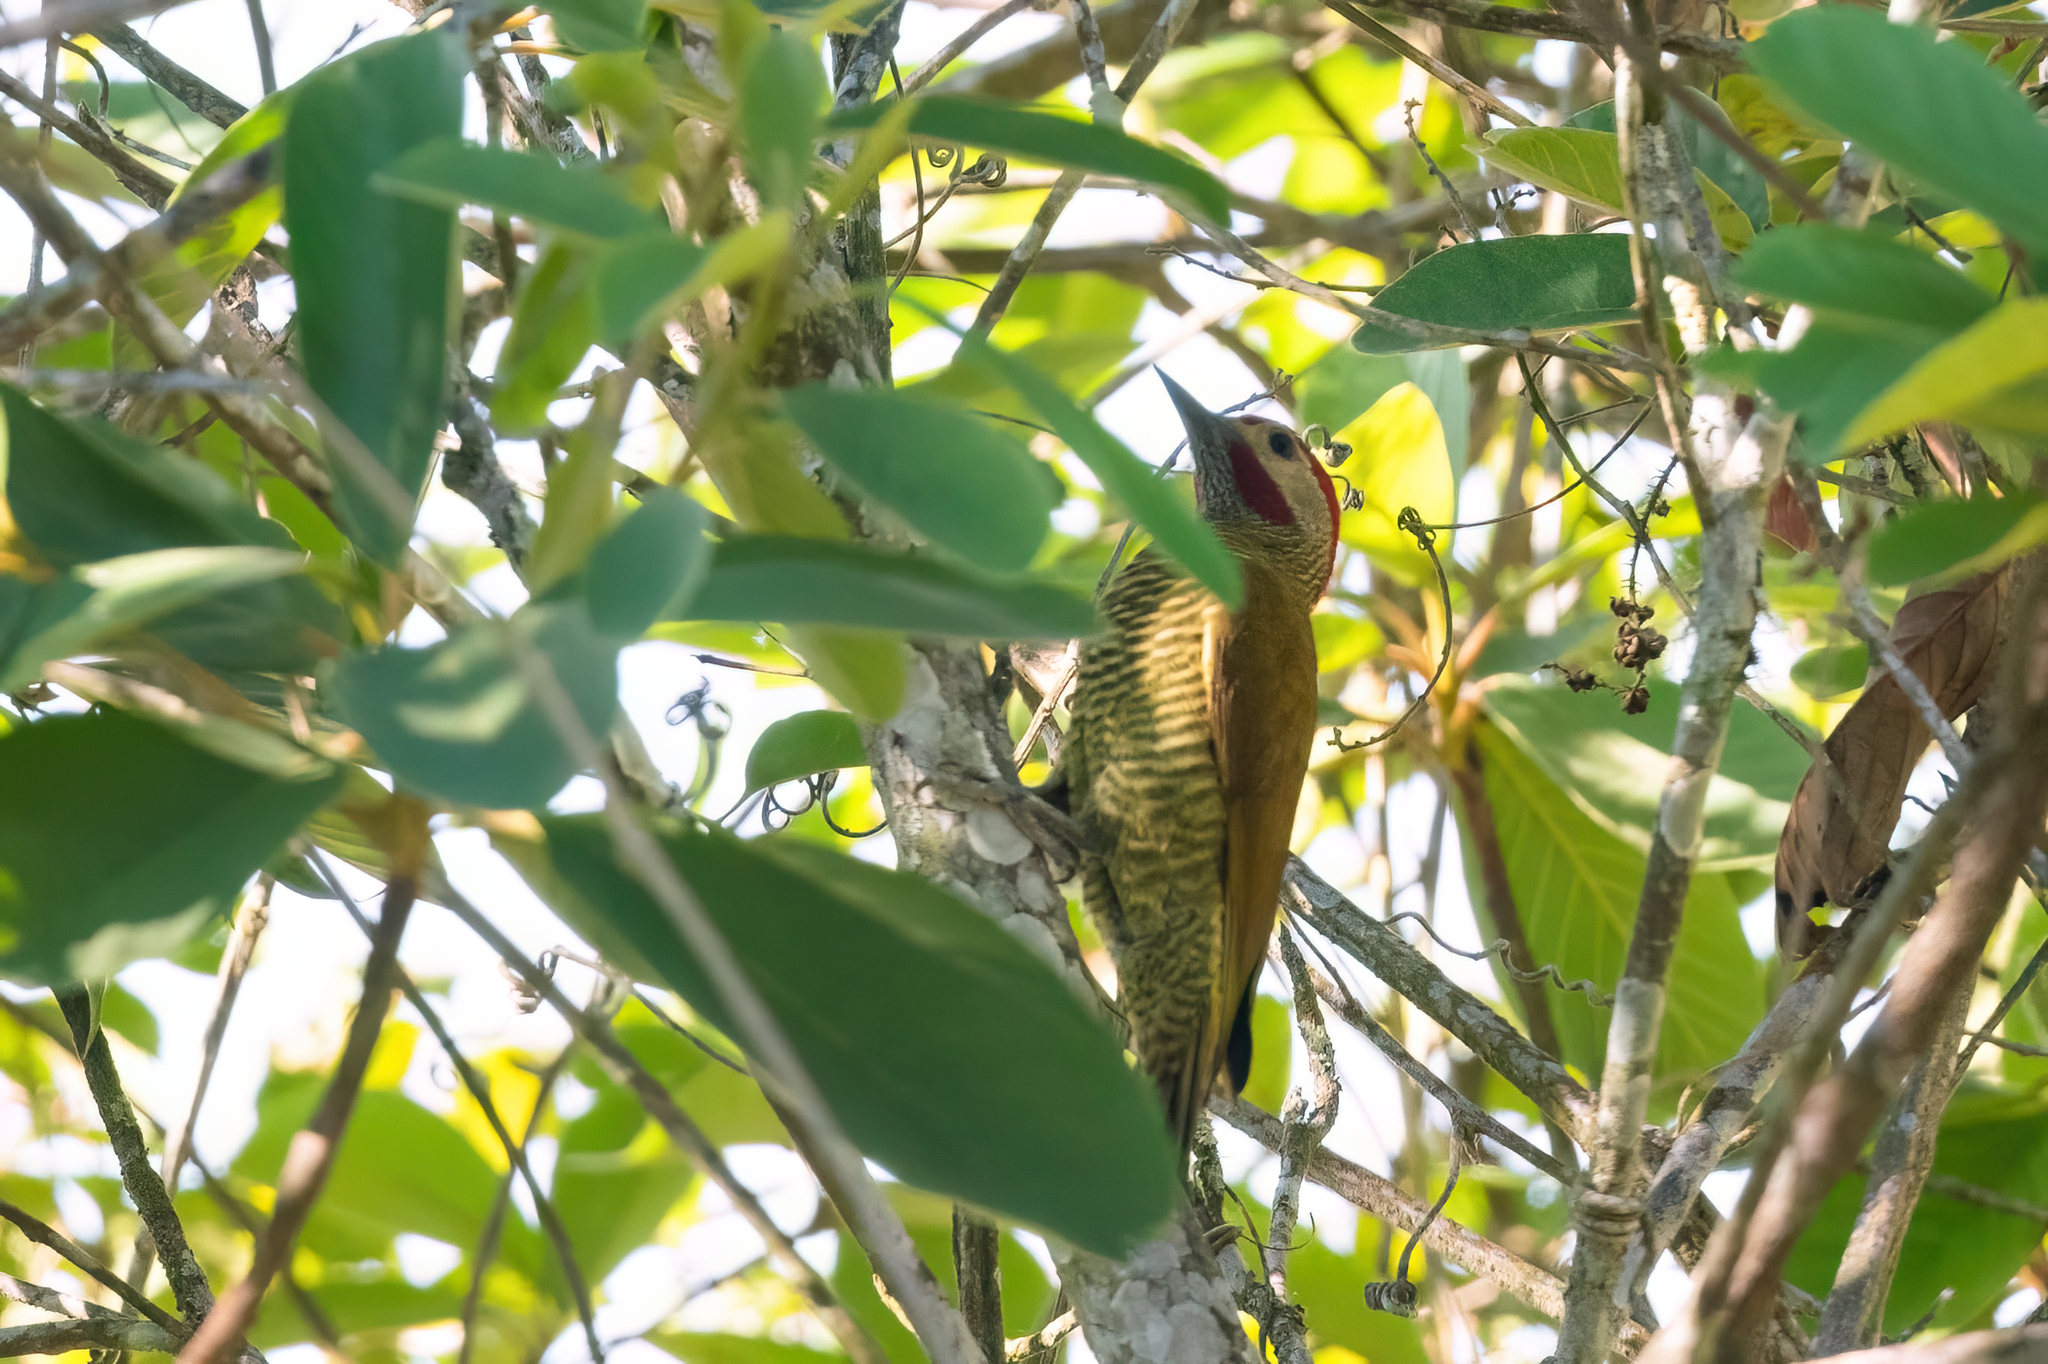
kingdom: Animalia
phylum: Chordata
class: Aves
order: Piciformes
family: Picidae
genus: Colaptes
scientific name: Colaptes rubiginosus
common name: Golden-olive woodpecker
